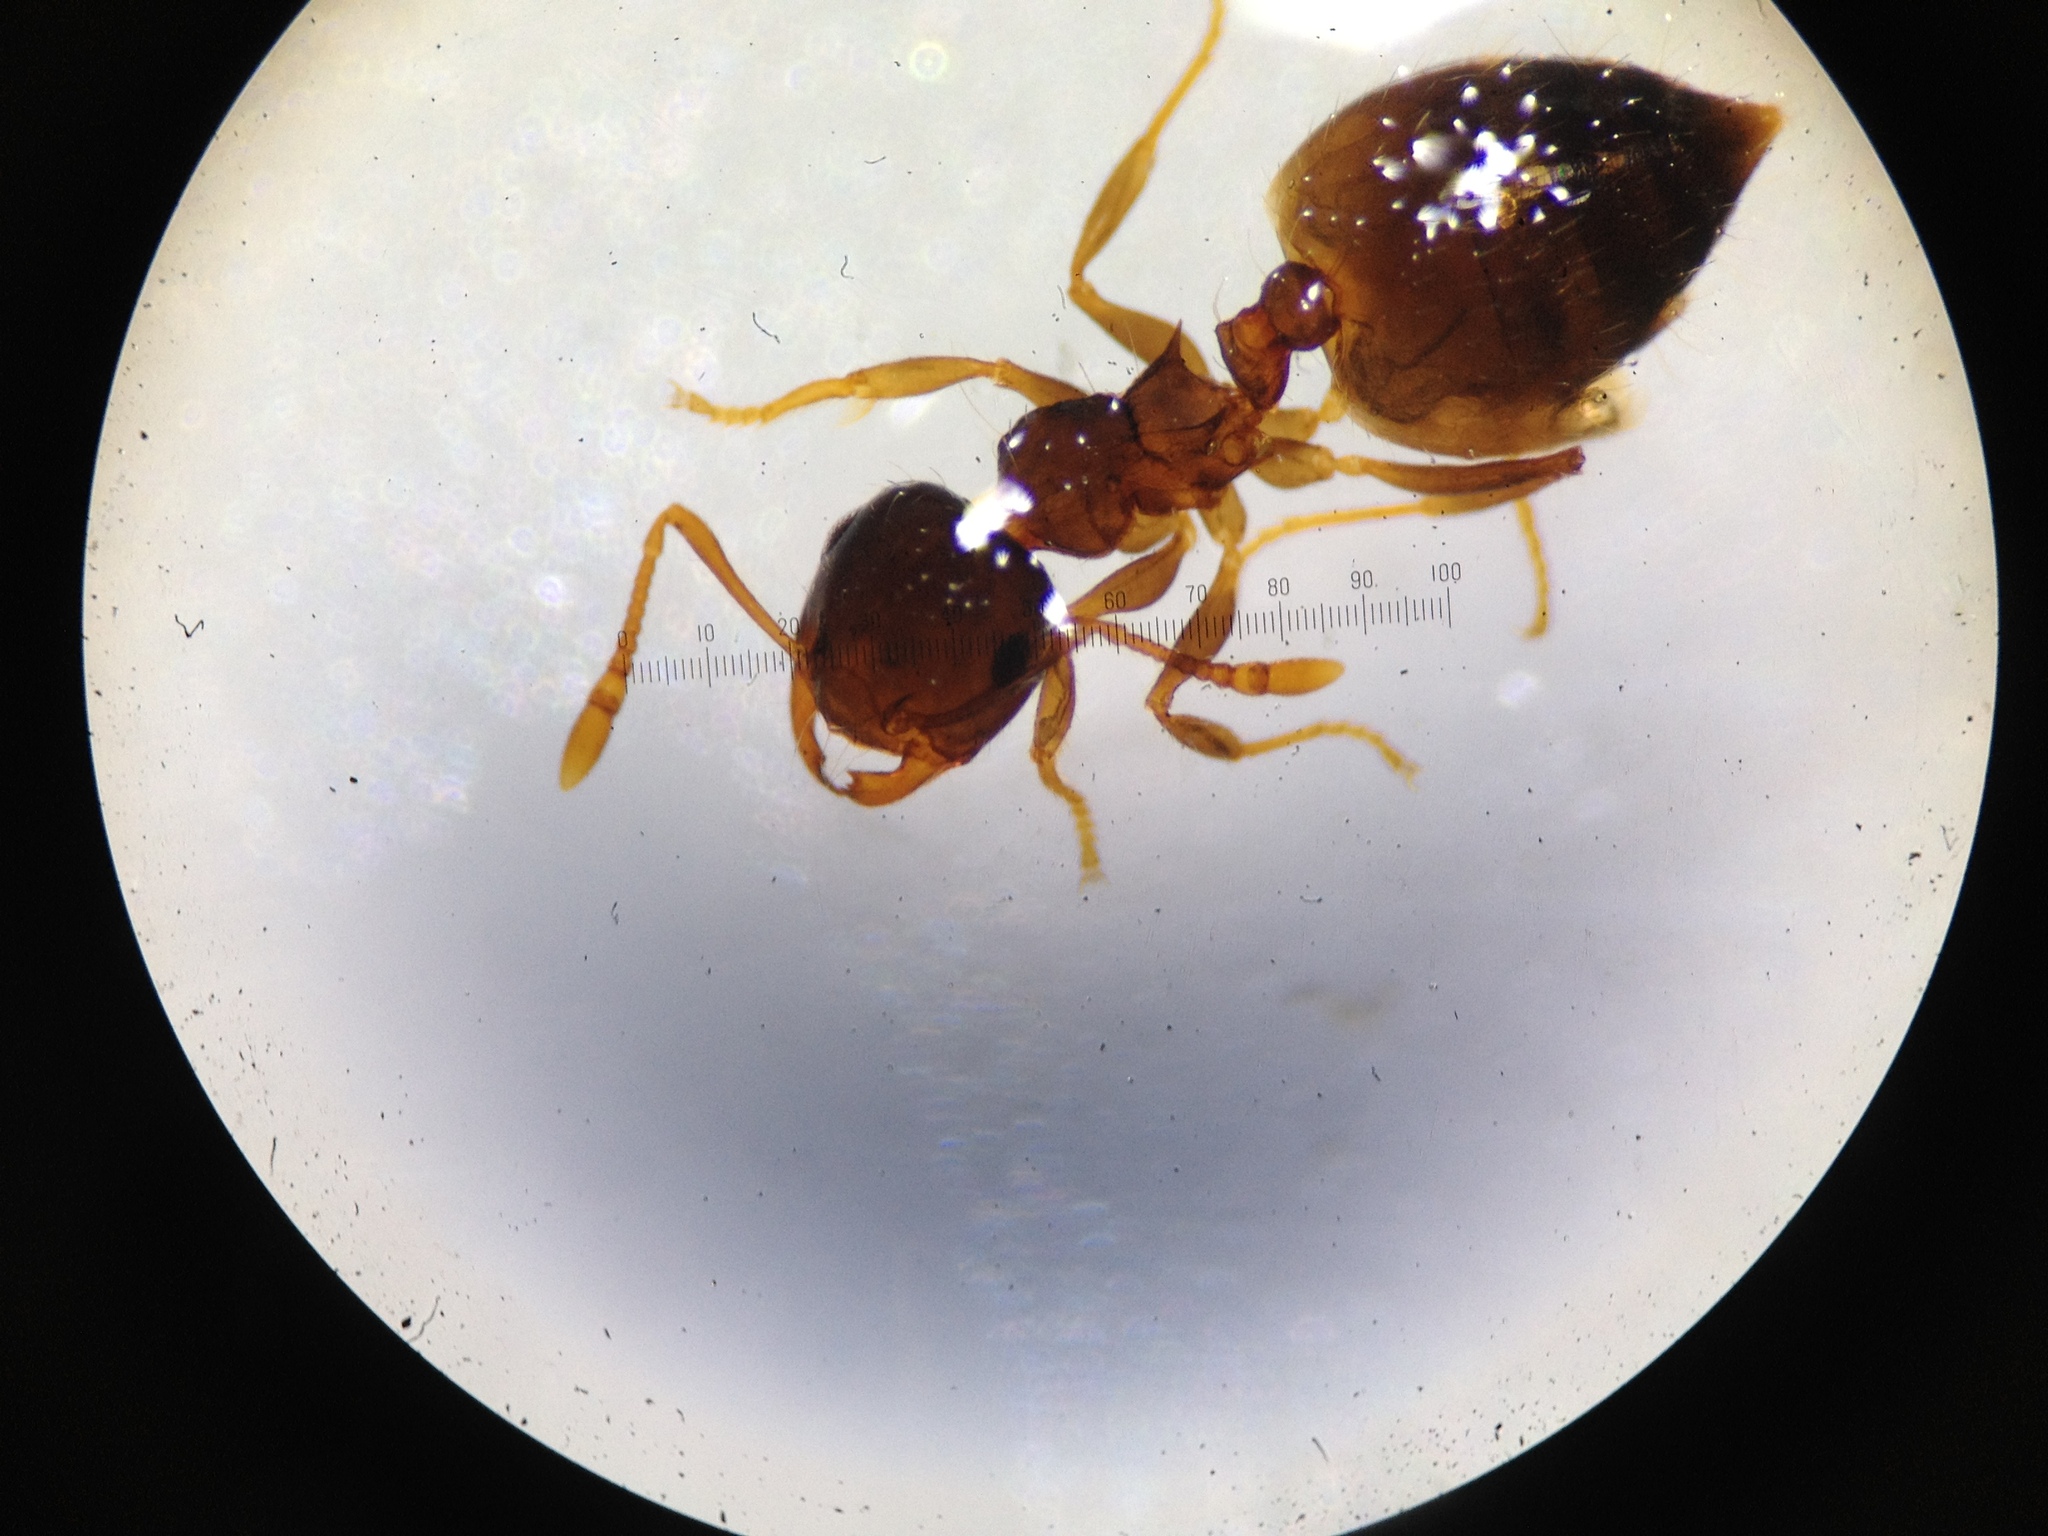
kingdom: Animalia
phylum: Arthropoda
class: Insecta
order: Hymenoptera
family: Formicidae
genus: Crematogaster
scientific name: Crematogaster sordidula
